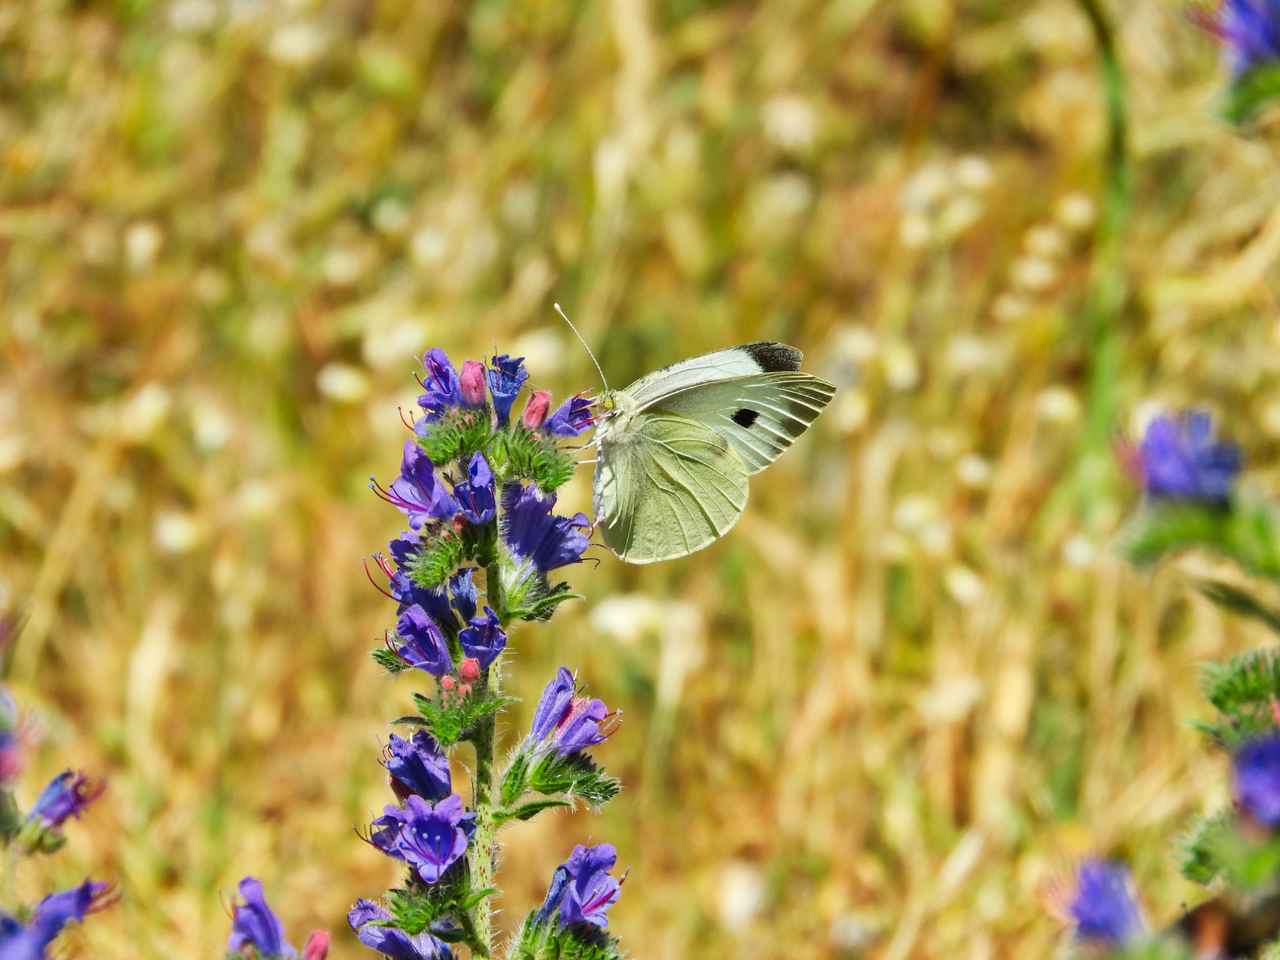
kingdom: Animalia
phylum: Arthropoda
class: Insecta
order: Lepidoptera
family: Pieridae
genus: Pieris
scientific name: Pieris brassicae
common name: Large white
